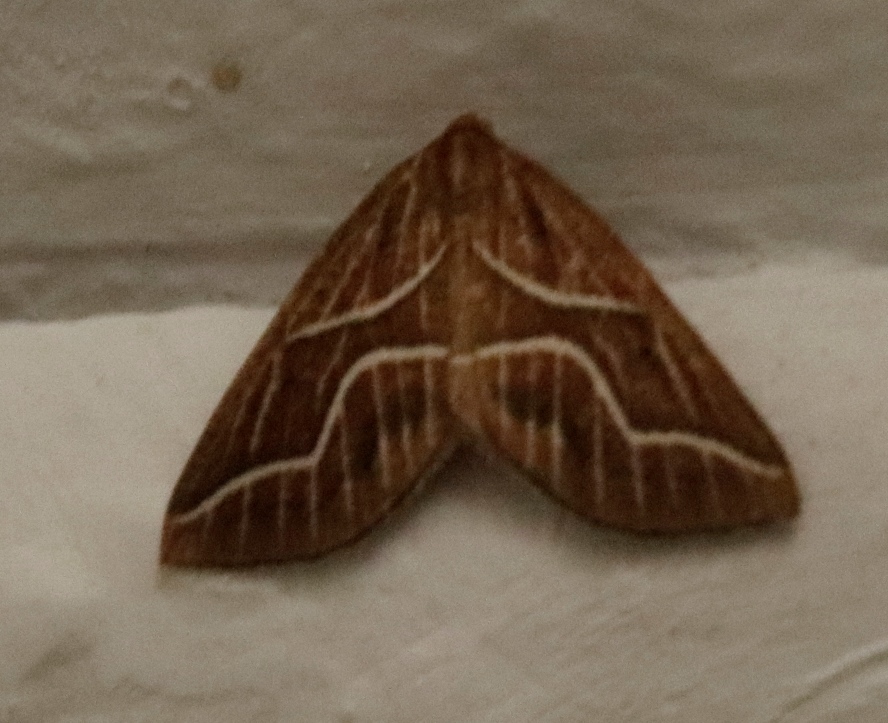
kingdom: Animalia
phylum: Arthropoda
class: Insecta
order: Lepidoptera
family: Geometridae
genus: Idiodes
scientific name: Idiodes flexilinea
